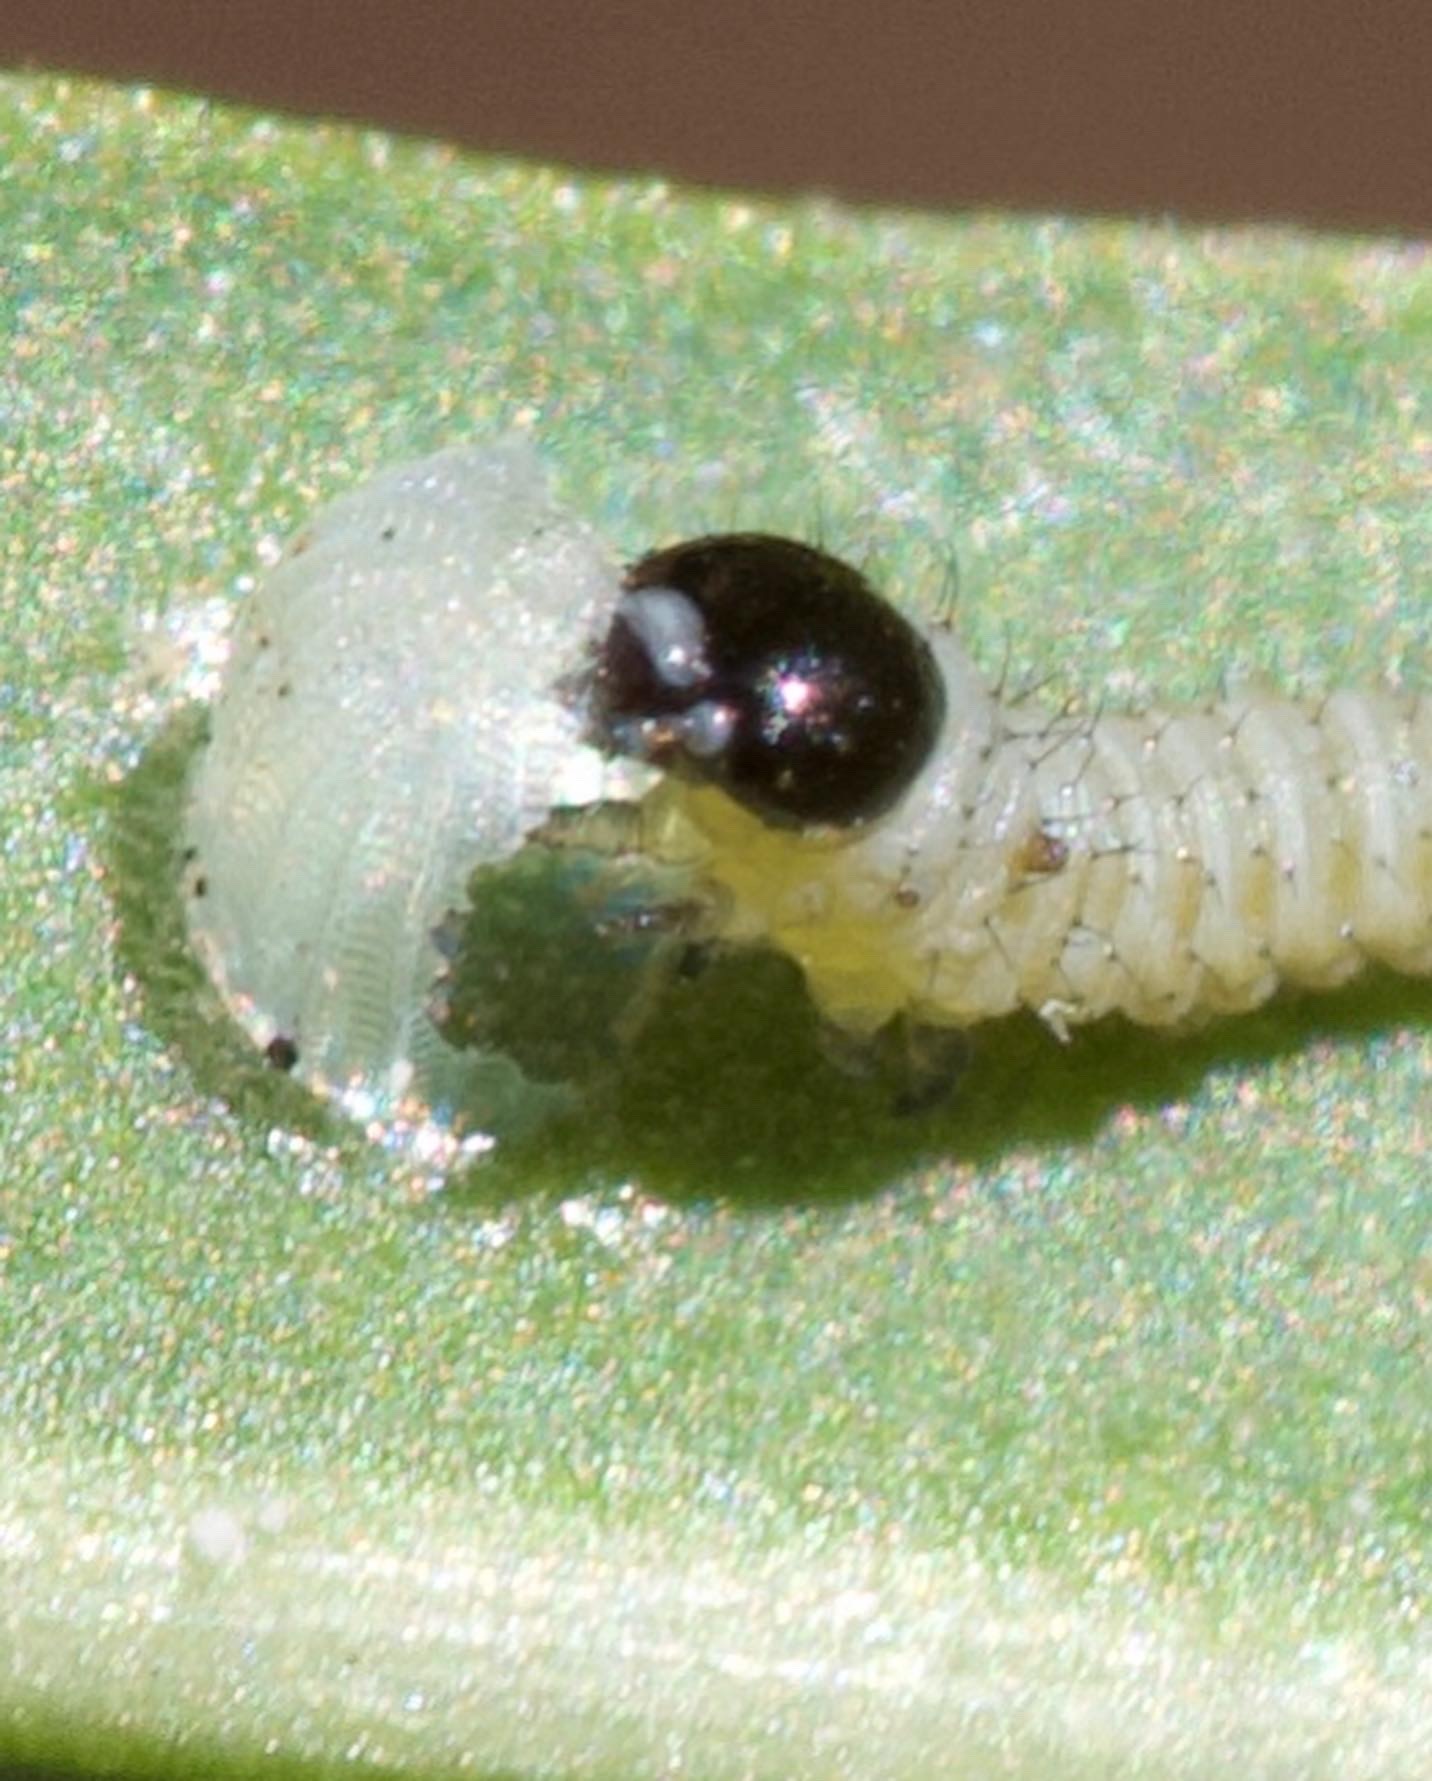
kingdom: Animalia
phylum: Arthropoda
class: Insecta
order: Lepidoptera
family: Nymphalidae
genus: Danaus
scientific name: Danaus plexippus
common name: Monarch
